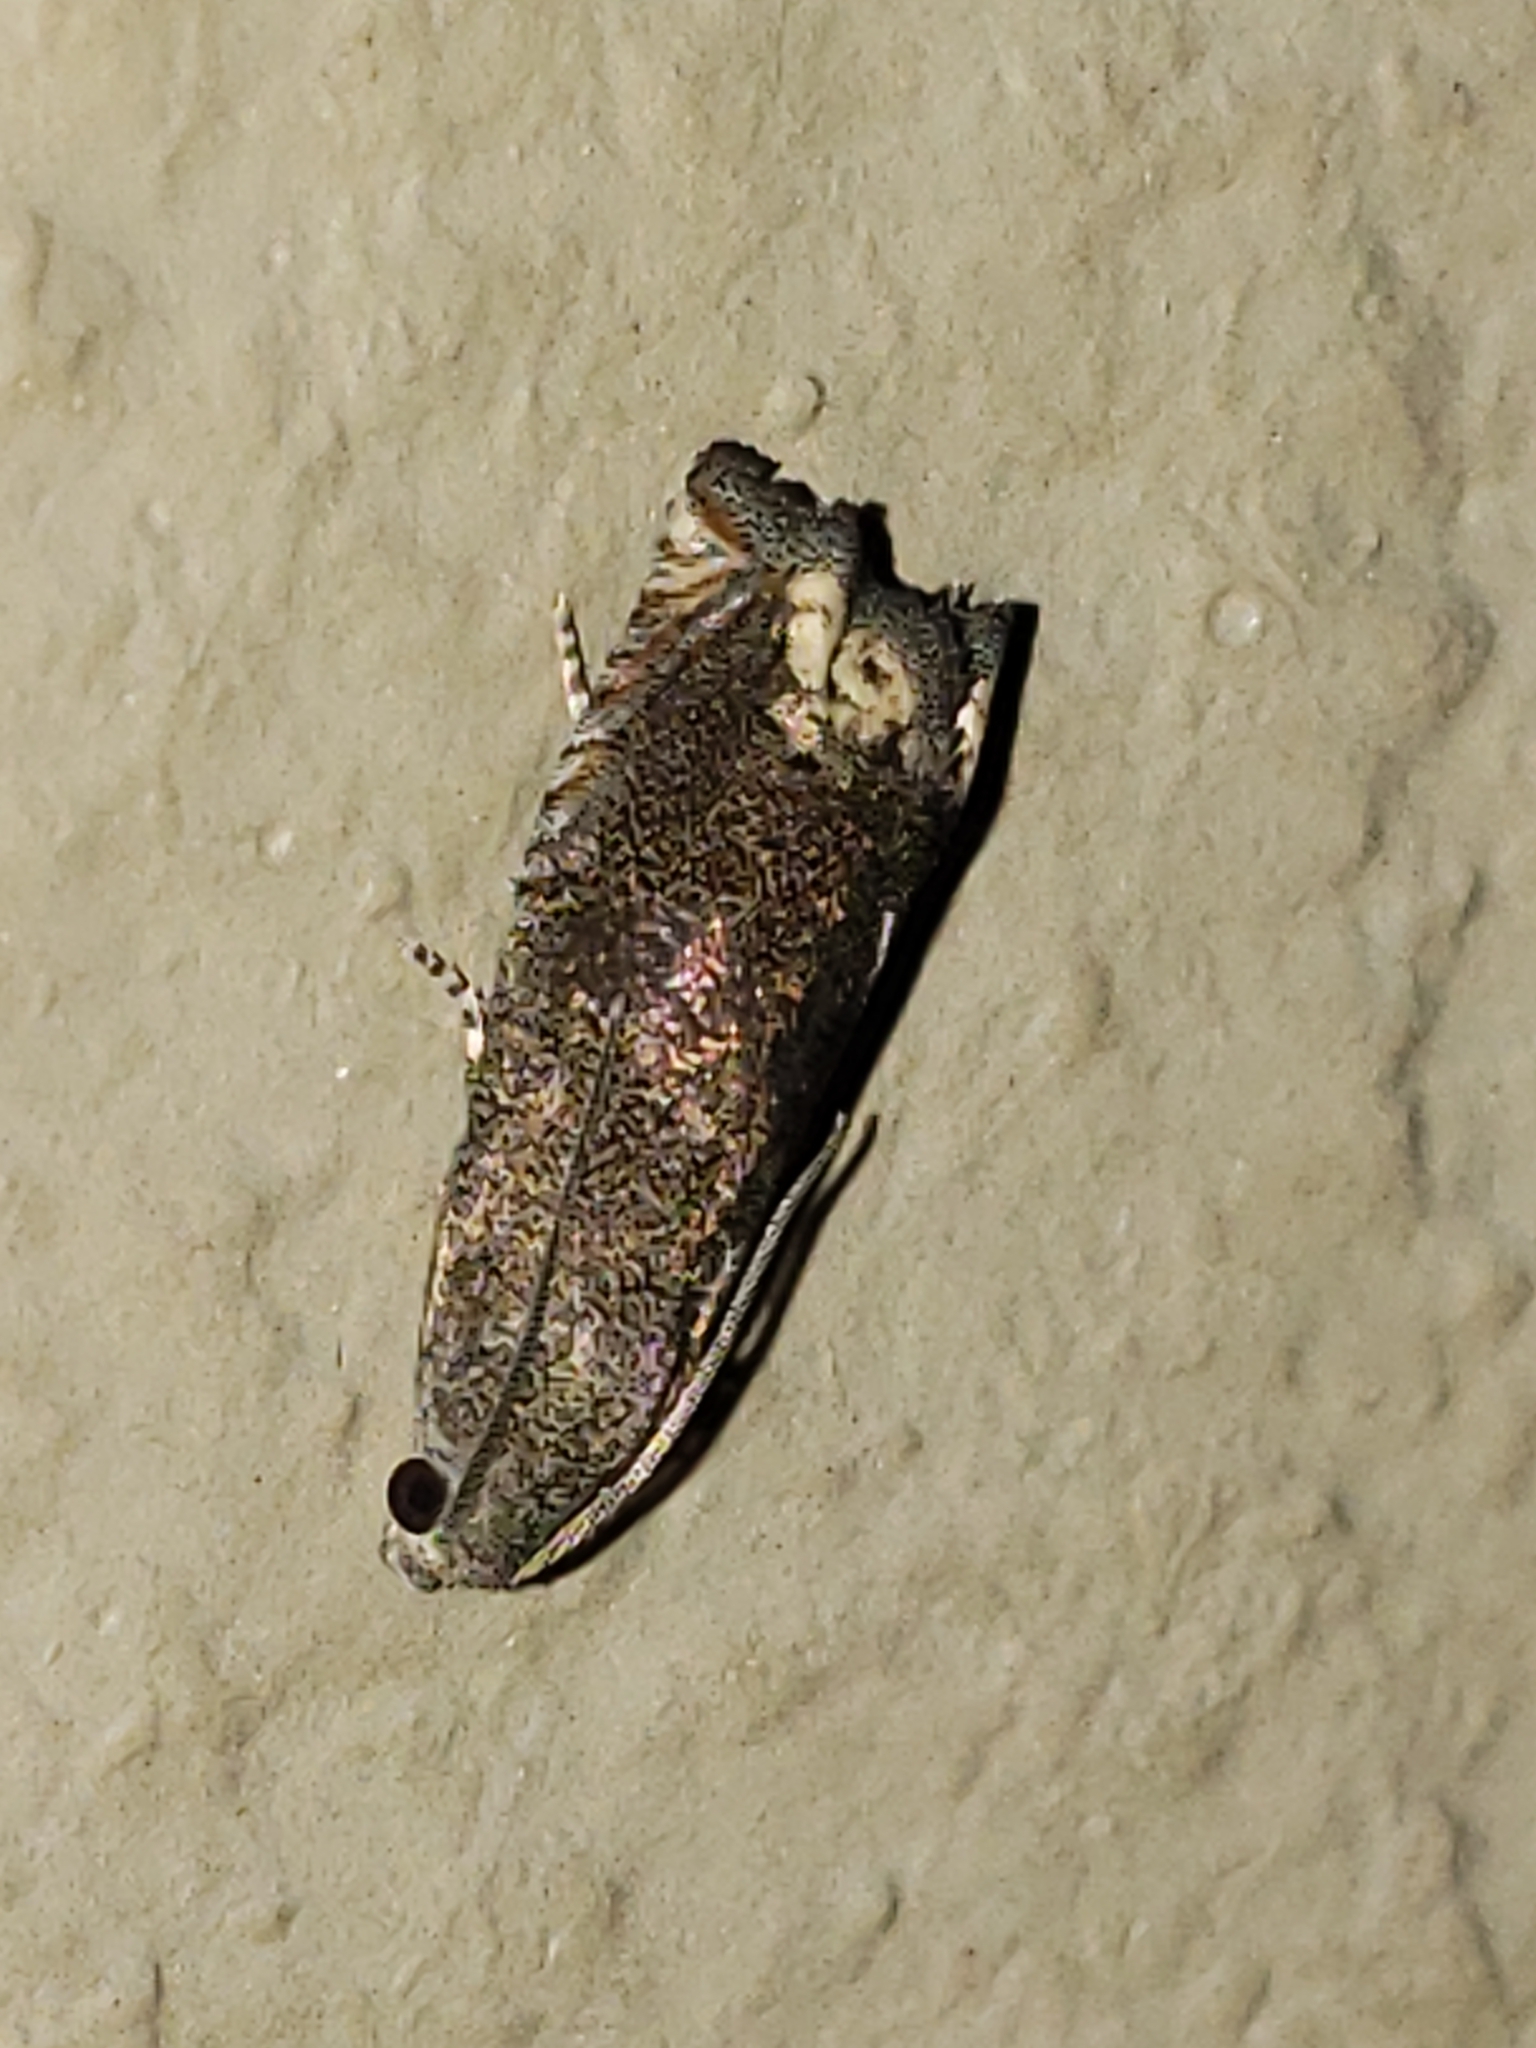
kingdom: Animalia
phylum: Arthropoda
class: Insecta
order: Lepidoptera
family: Tortricidae
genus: Epiblema
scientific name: Epiblema strenuana
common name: Ragweed borer moth
